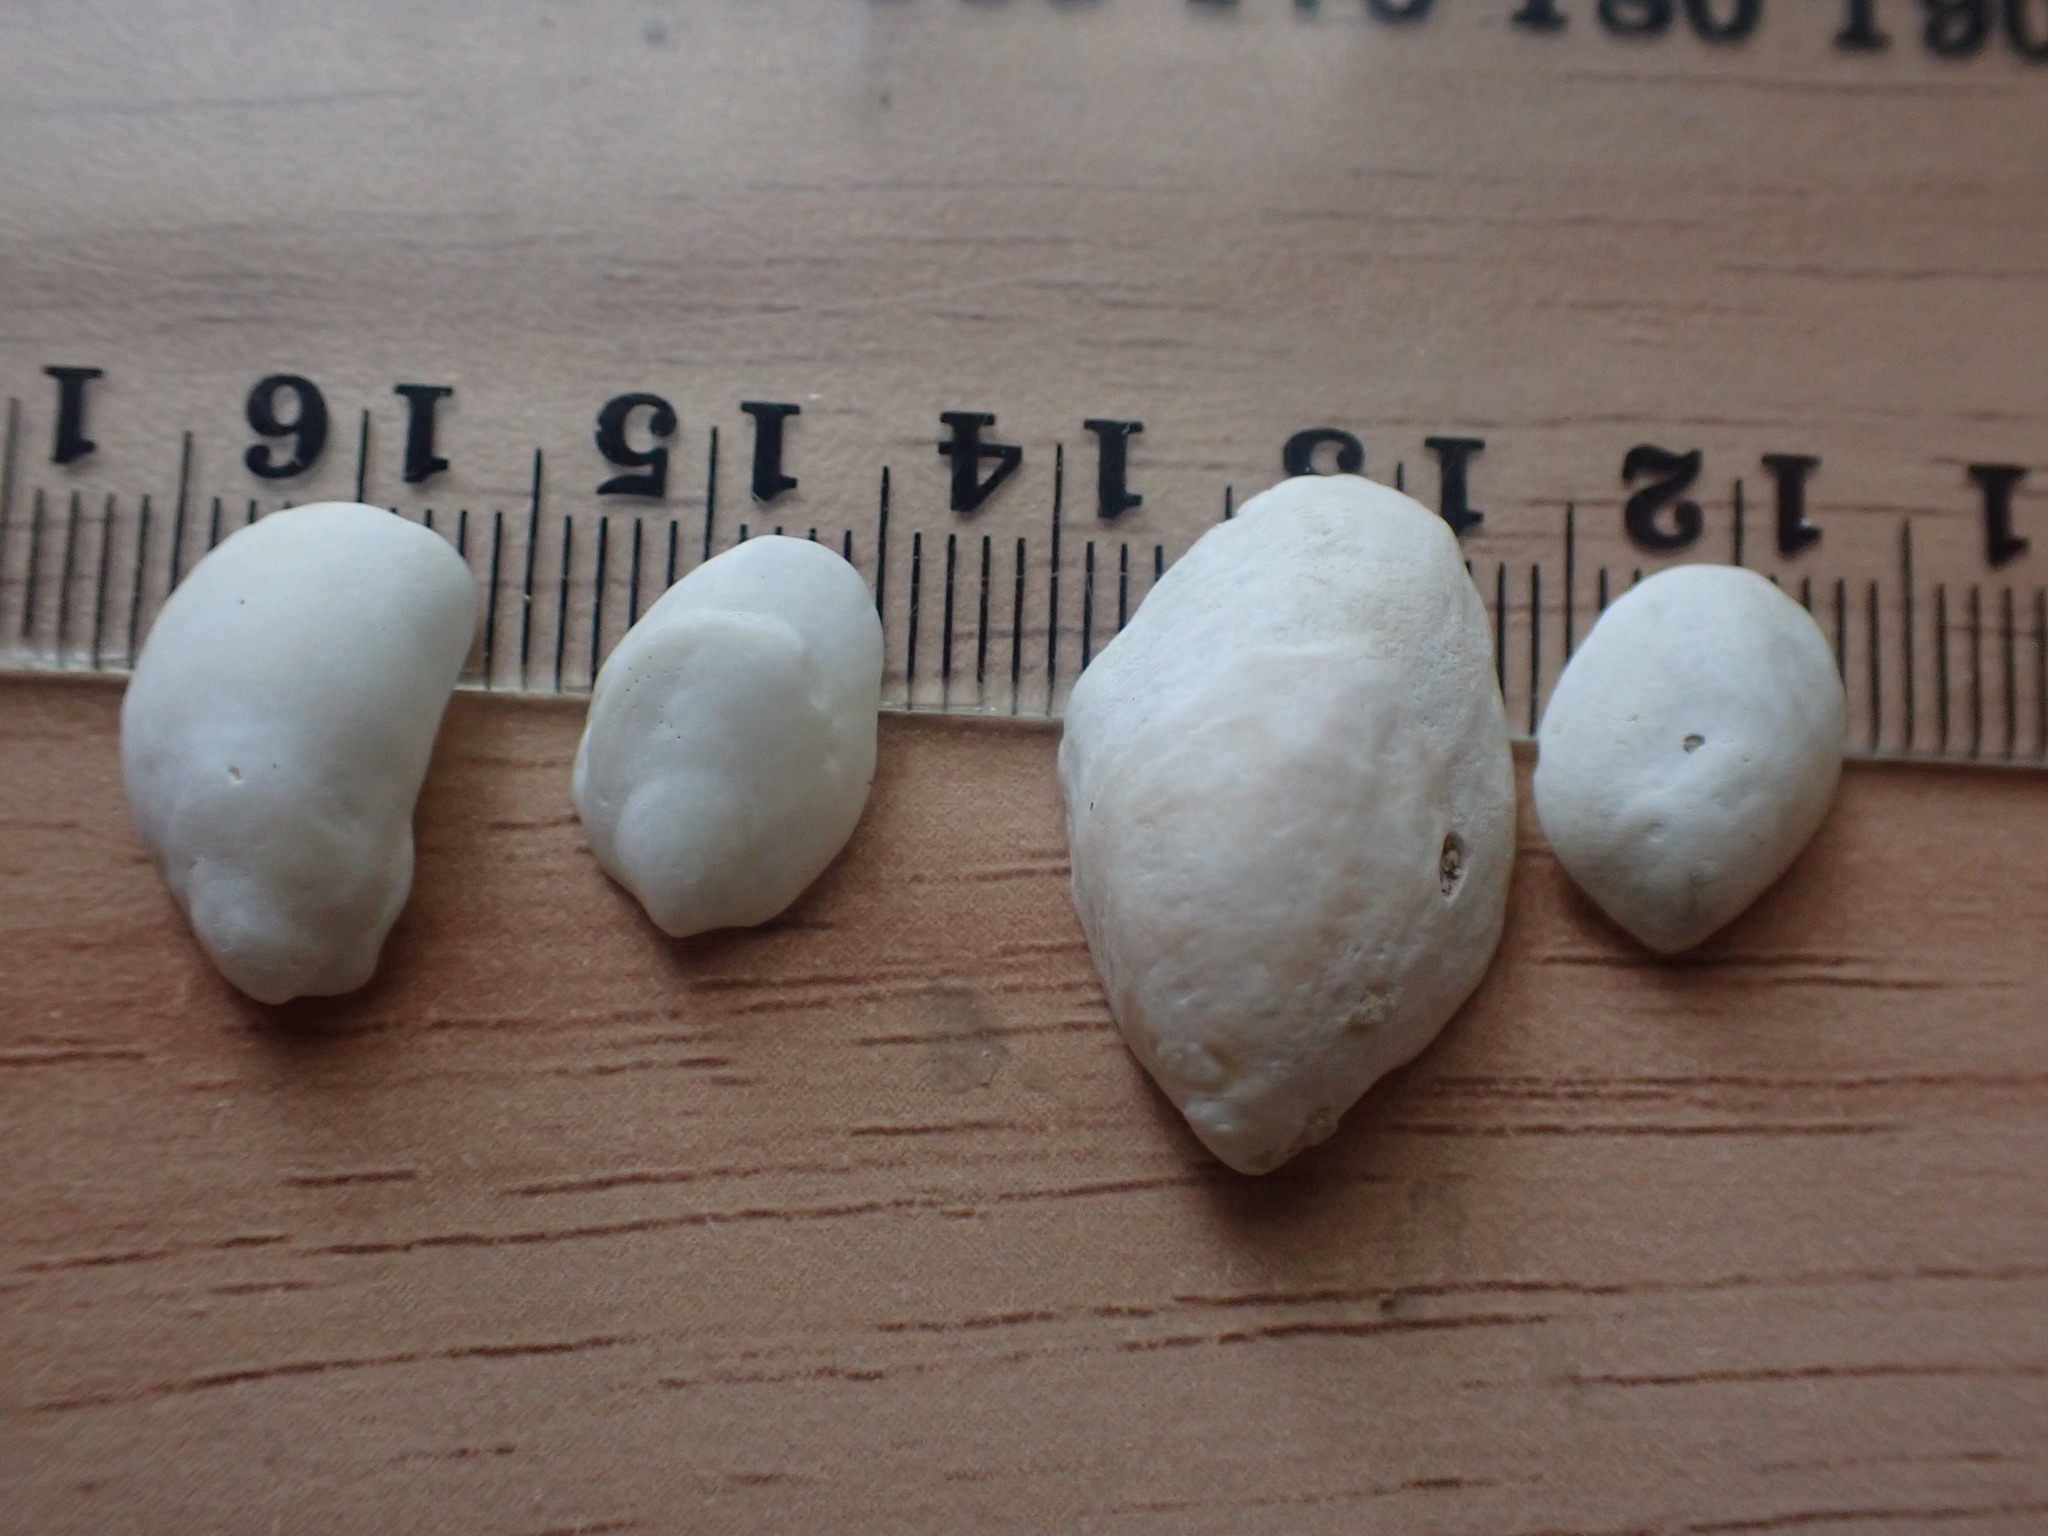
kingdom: Animalia
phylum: Mollusca
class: Gastropoda
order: Littorinimorpha
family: Calyptraeidae
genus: Maoricrypta
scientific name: Maoricrypta monoxyla
